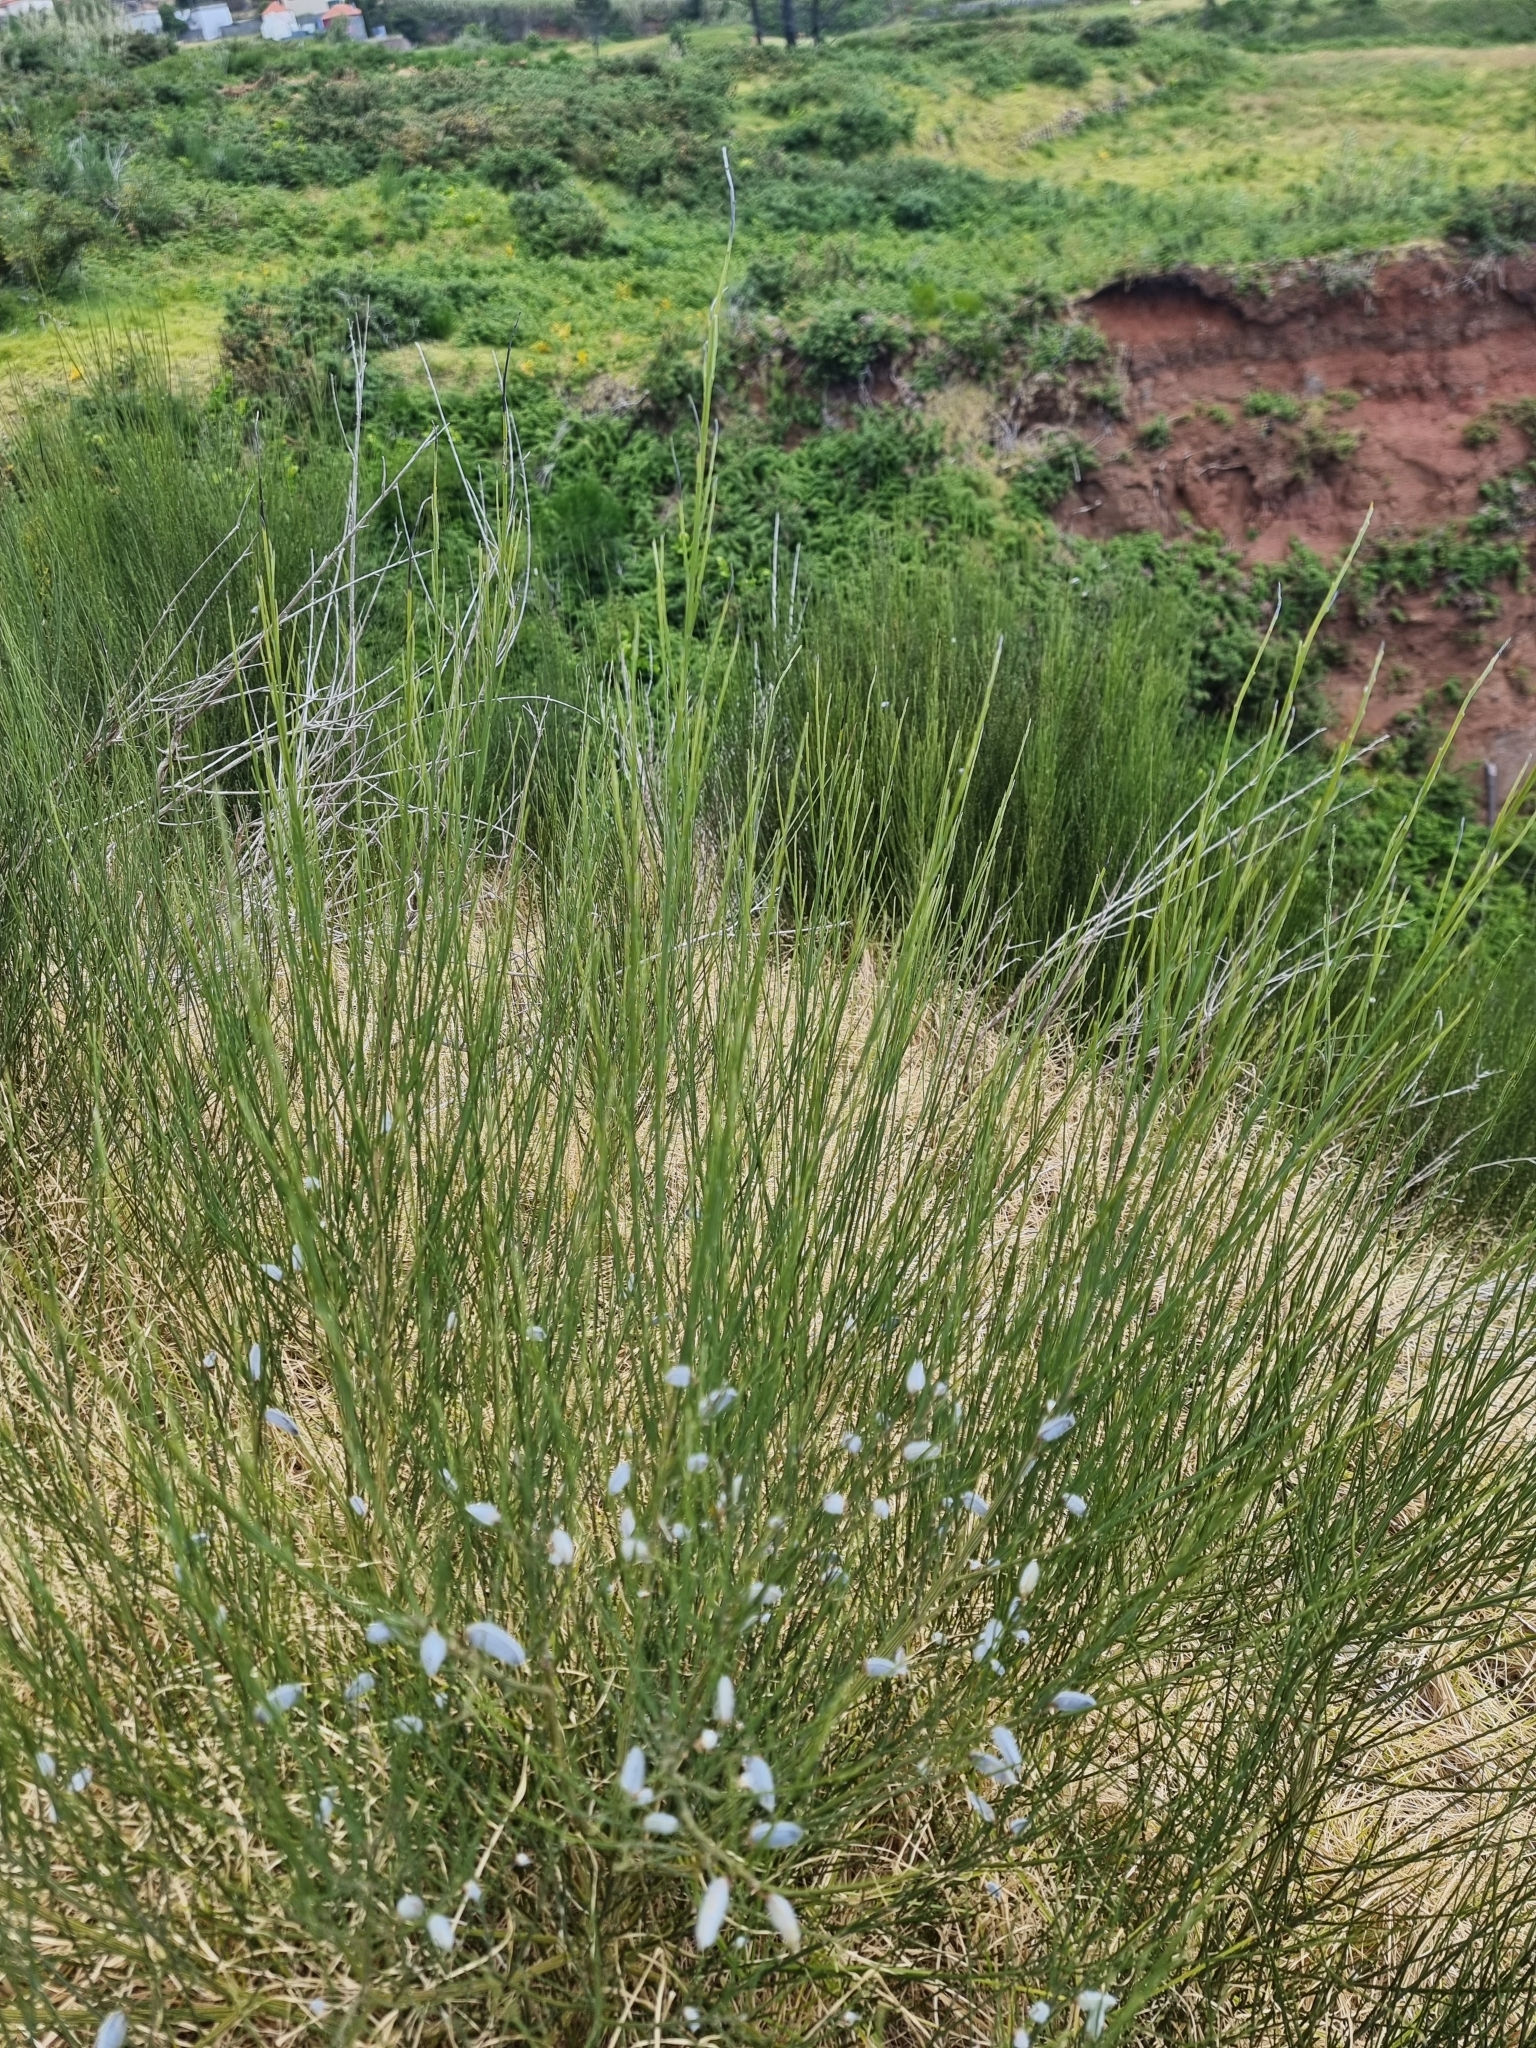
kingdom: Plantae
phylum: Tracheophyta
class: Magnoliopsida
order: Fabales
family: Fabaceae
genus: Cytisus
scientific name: Cytisus striatus
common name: Hairy-fruited broom
